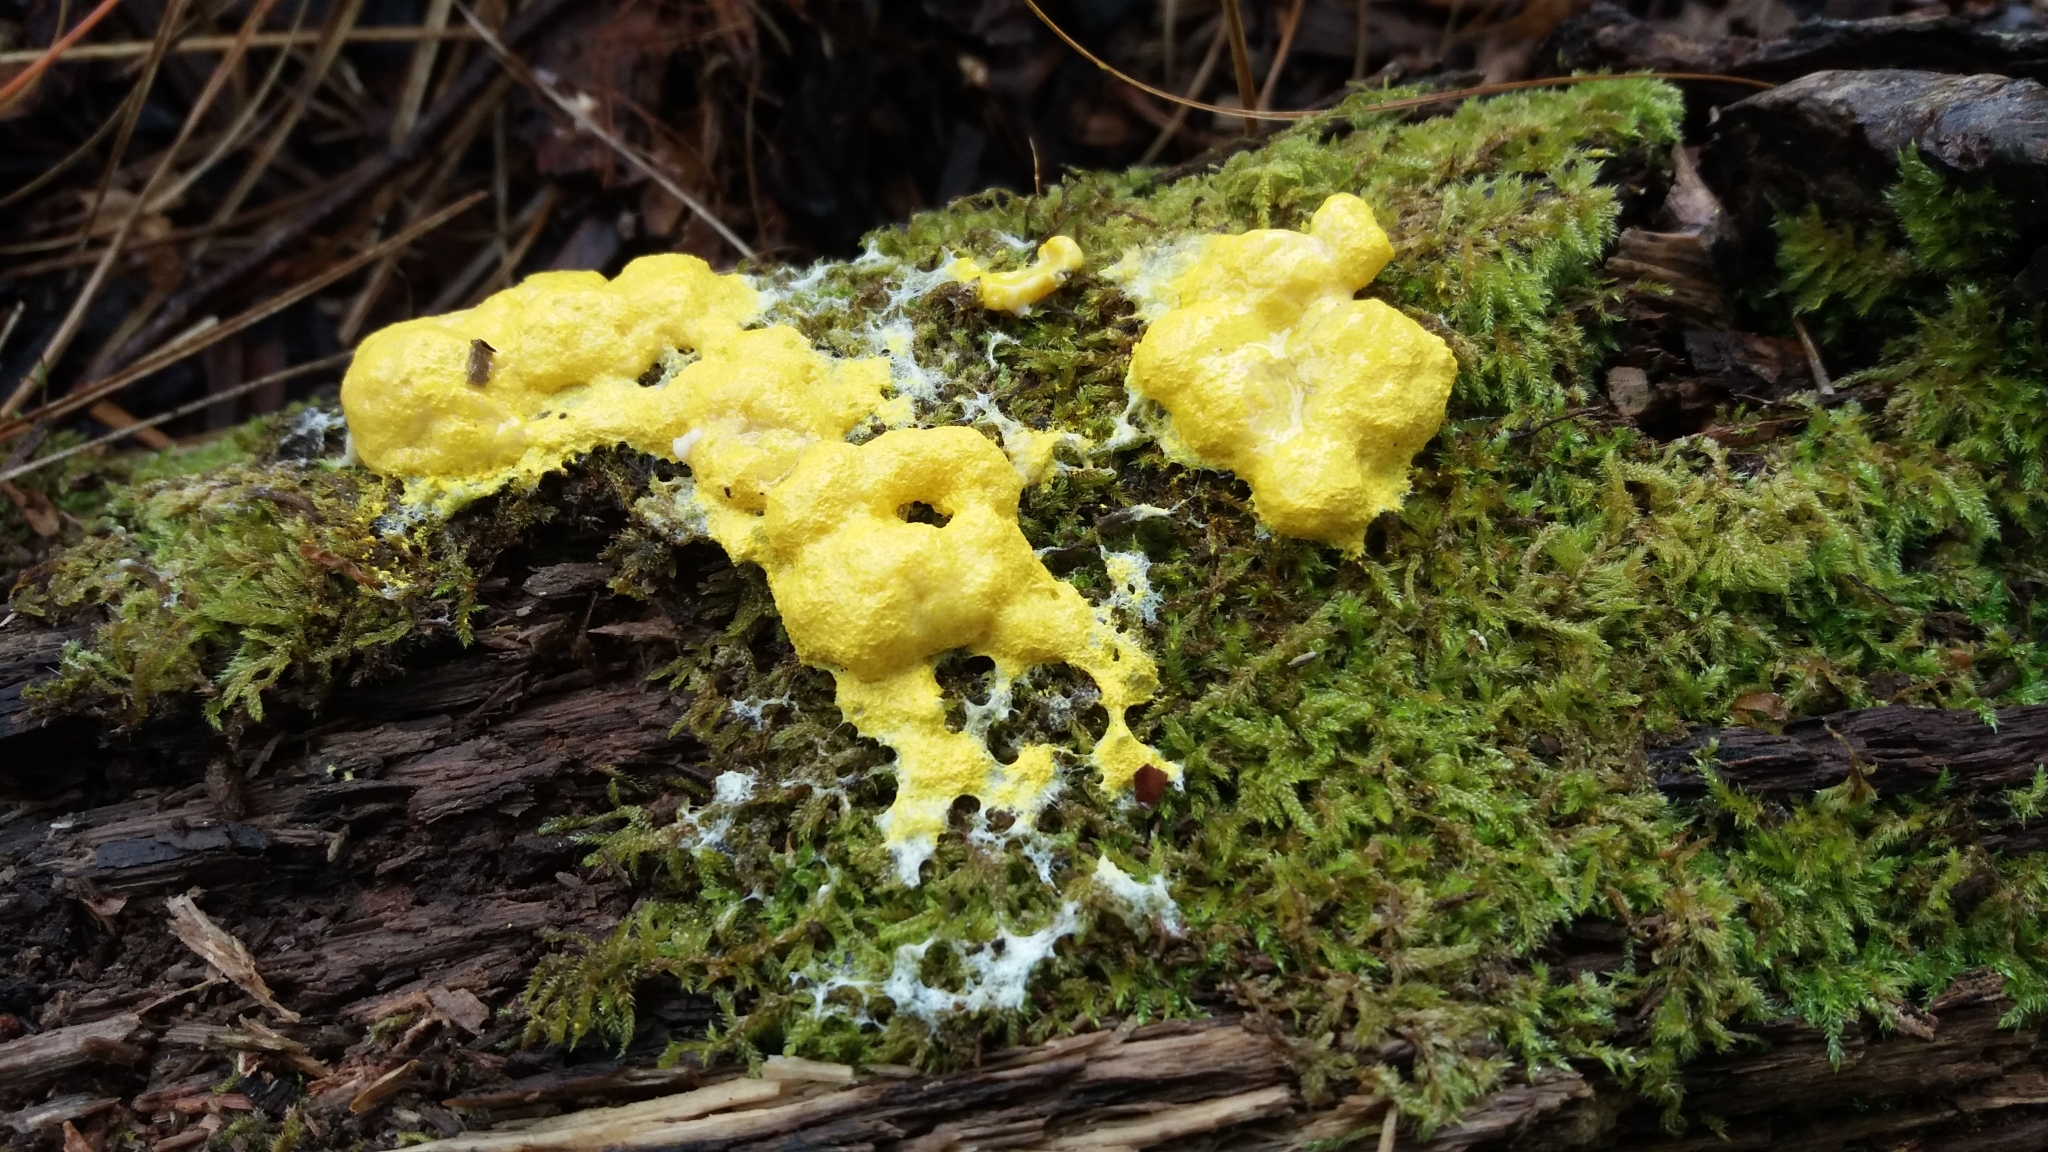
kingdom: Protozoa
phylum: Mycetozoa
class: Myxomycetes
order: Physarales
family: Physaraceae
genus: Fuligo
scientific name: Fuligo septica
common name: Dog vomit slime mold
